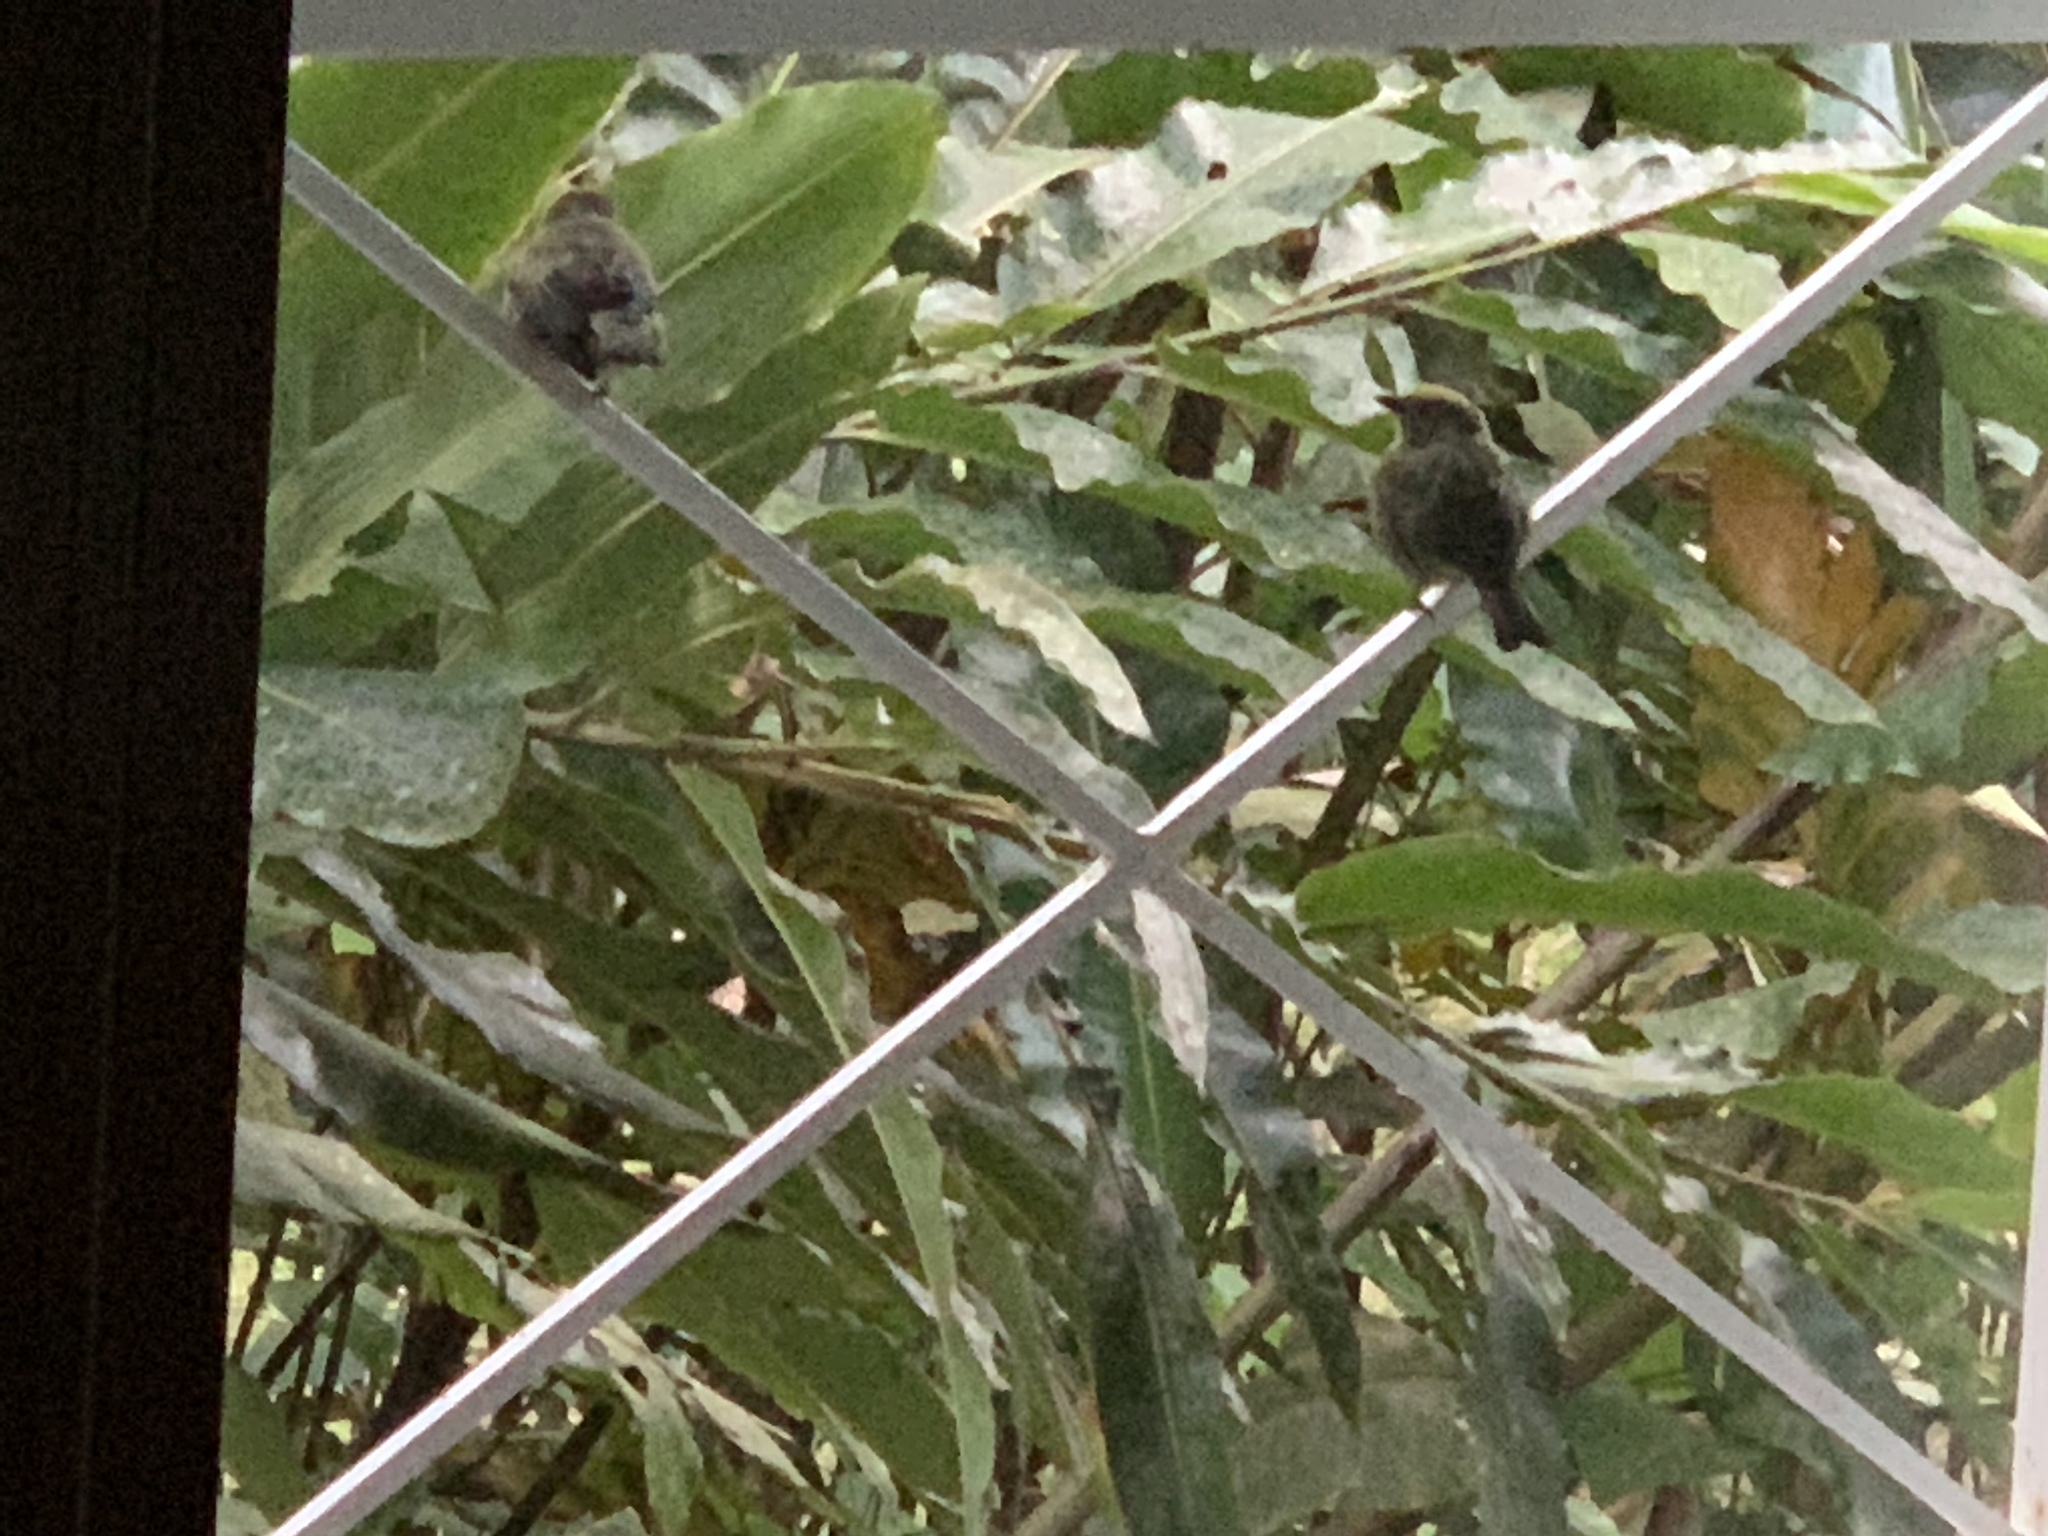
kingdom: Animalia
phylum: Chordata
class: Aves
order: Passeriformes
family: Thraupidae
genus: Thraupis
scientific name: Thraupis palmarum
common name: Palm tanager
